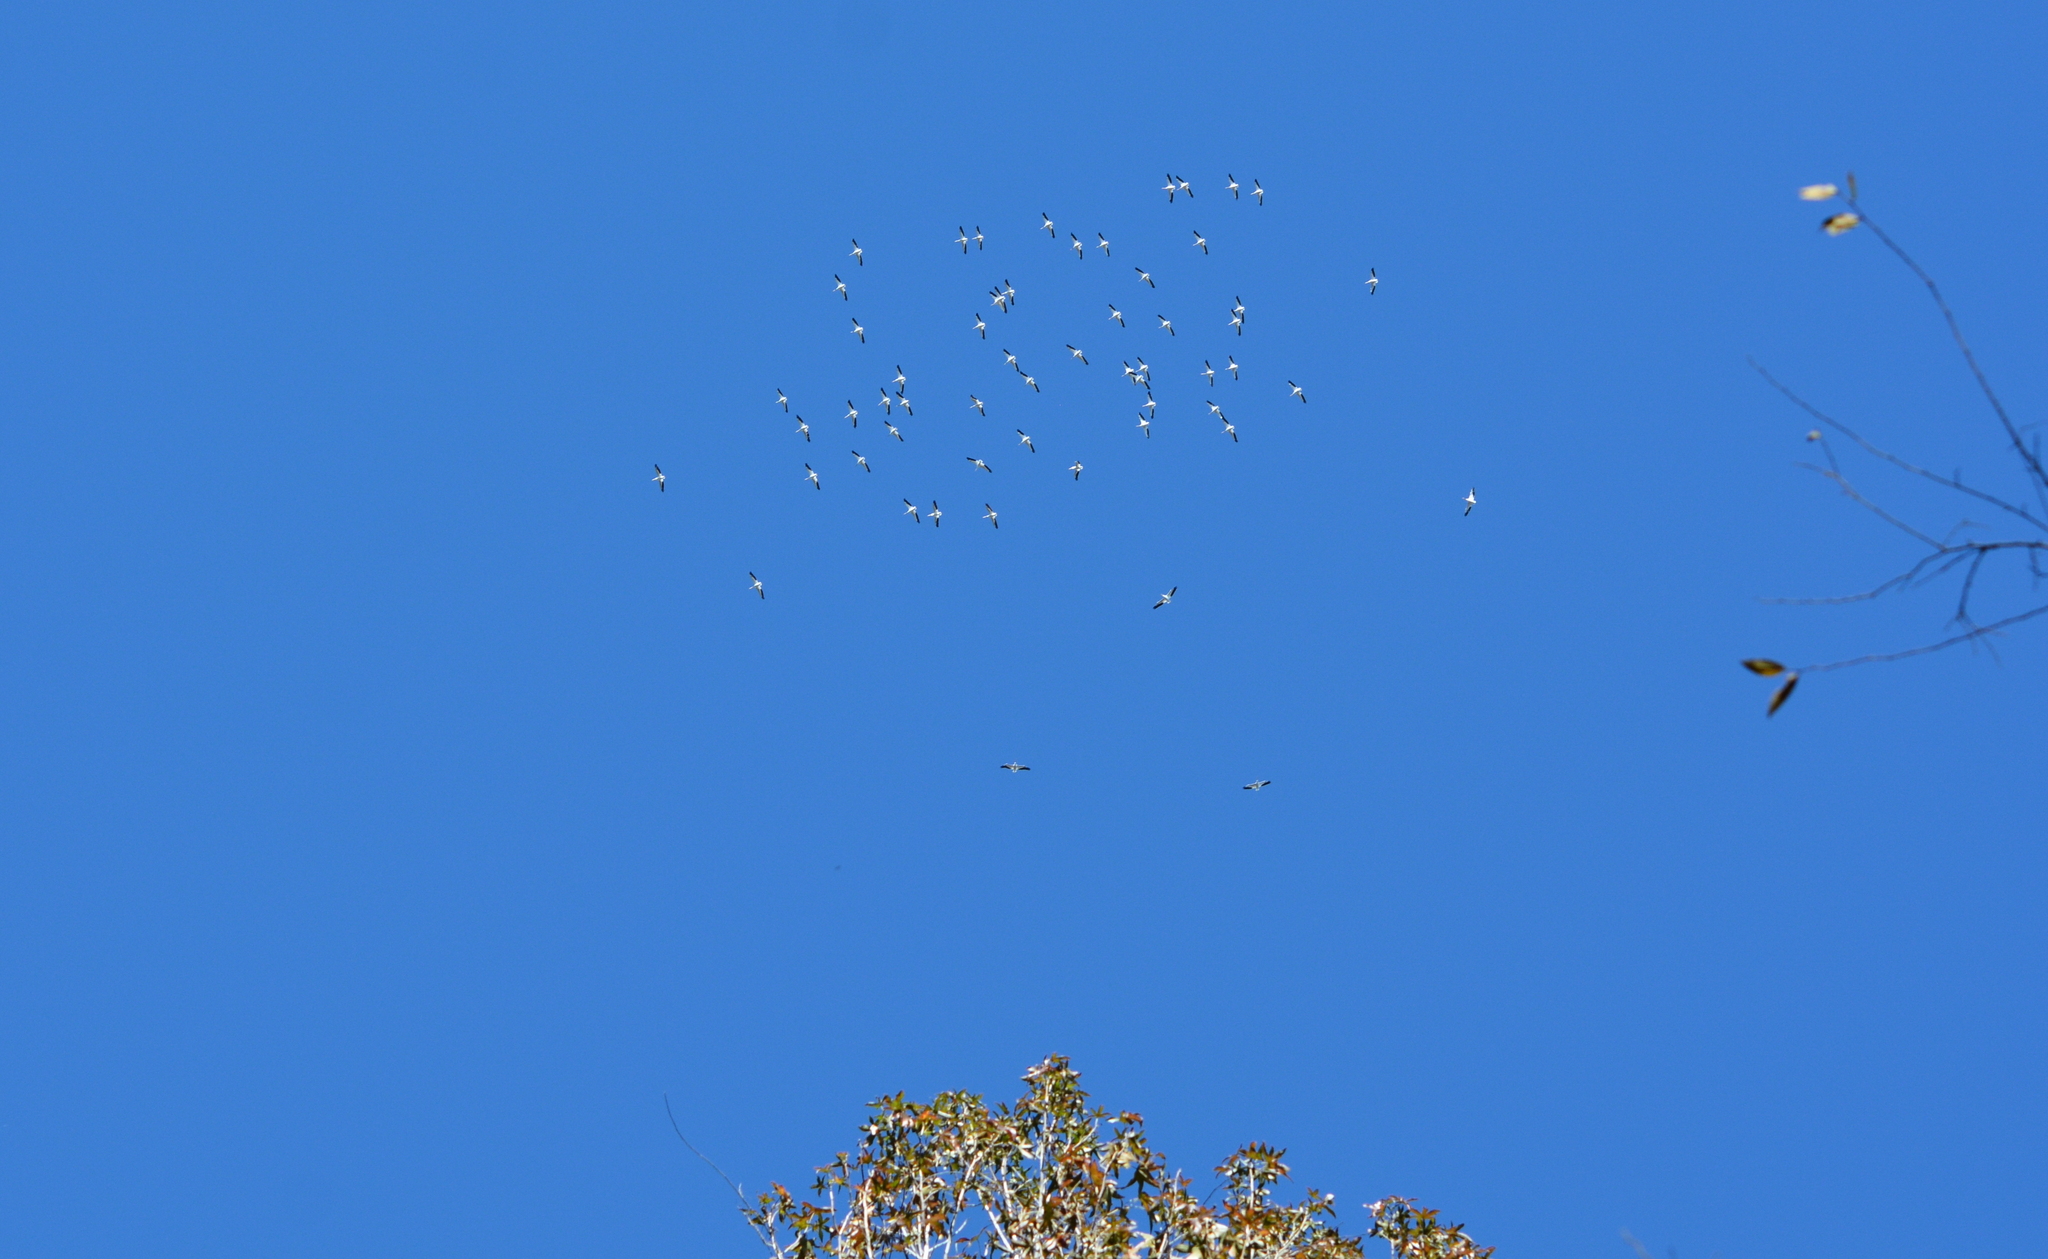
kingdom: Animalia
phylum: Chordata
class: Aves
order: Pelecaniformes
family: Pelecanidae
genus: Pelecanus
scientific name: Pelecanus erythrorhynchos
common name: American white pelican
